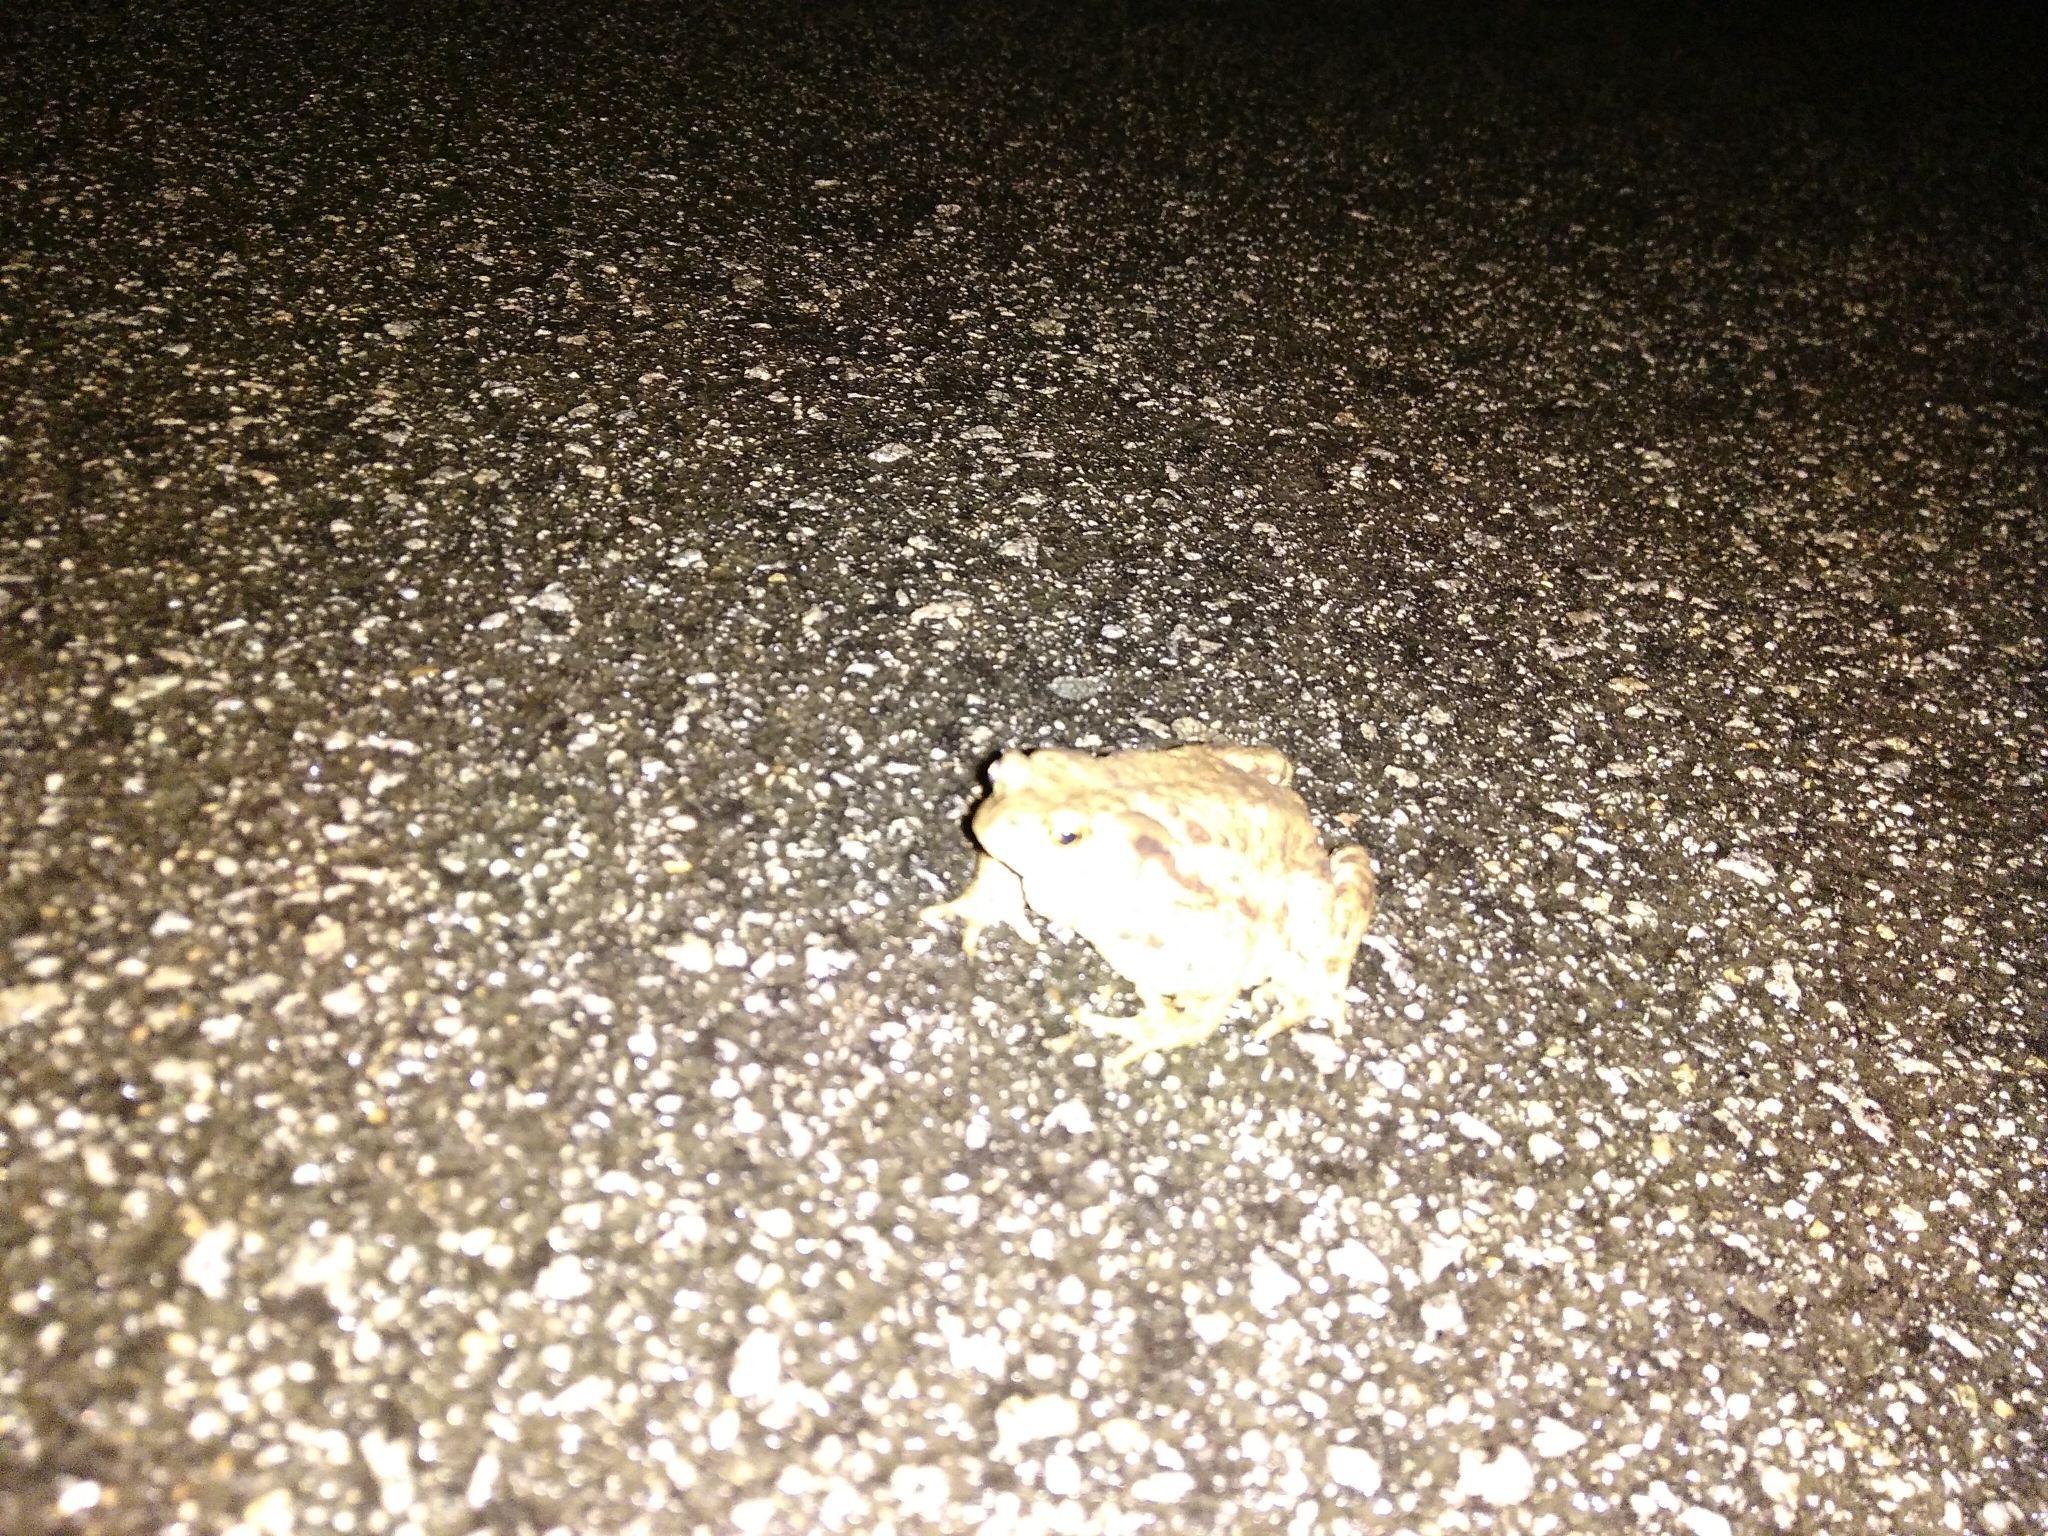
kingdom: Animalia
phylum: Chordata
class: Amphibia
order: Anura
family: Bufonidae
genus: Bufo
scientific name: Bufo bufo
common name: Common toad
